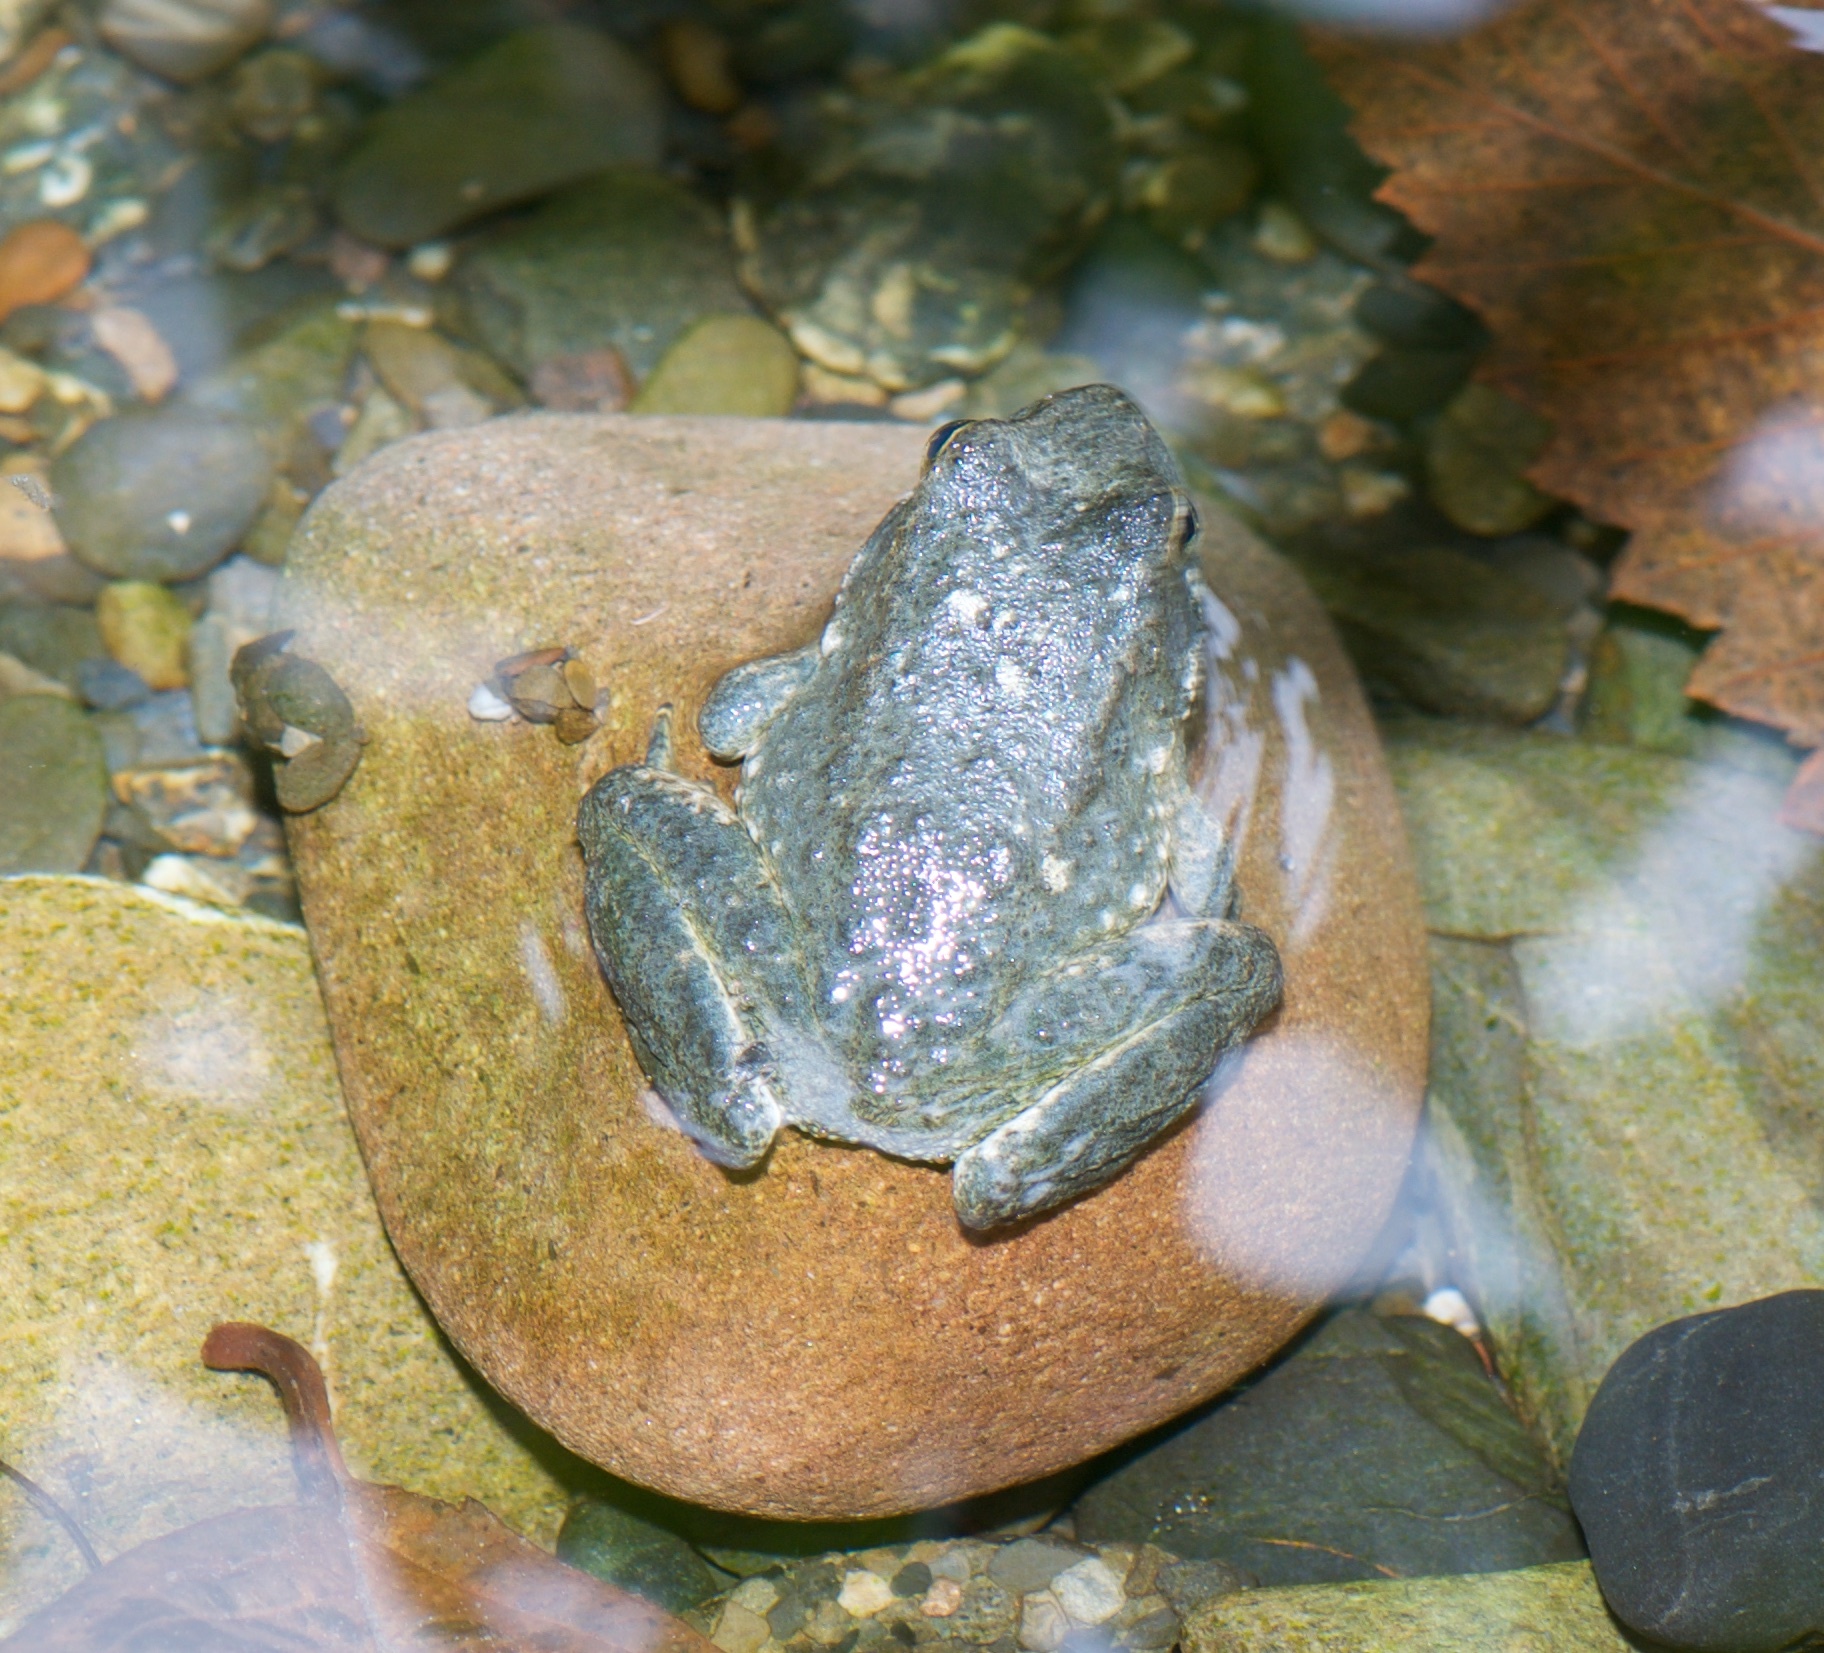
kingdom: Animalia
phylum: Chordata
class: Amphibia
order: Anura
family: Ranidae
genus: Rana
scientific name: Rana boylii
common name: Foothill yellow-legged frog
